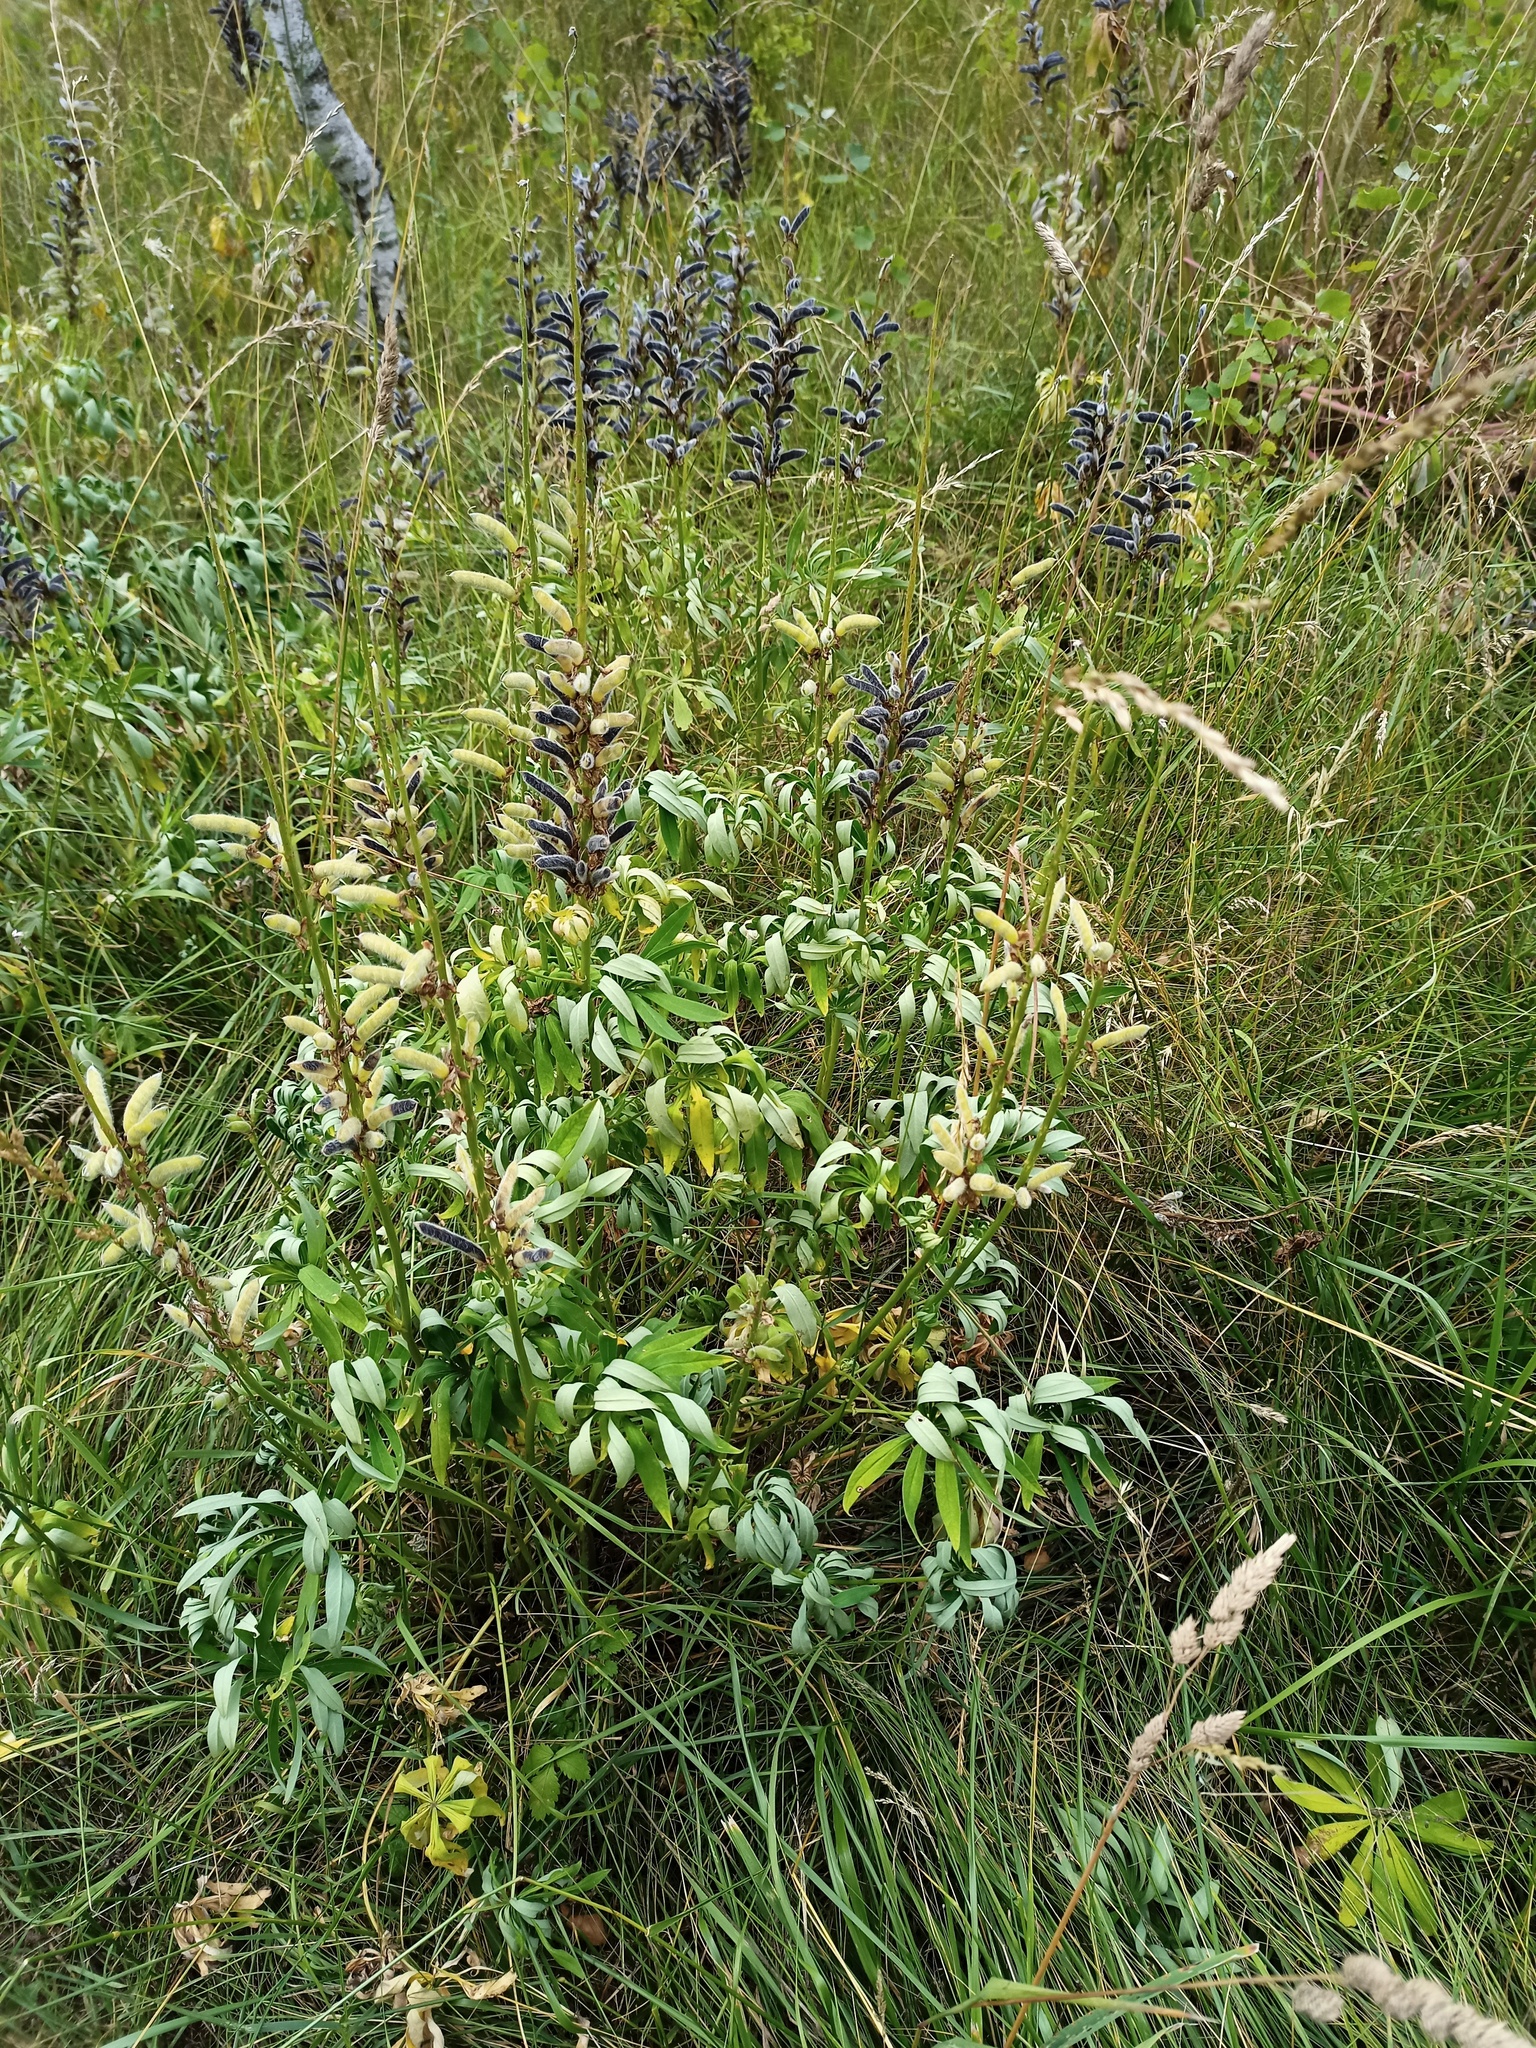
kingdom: Plantae
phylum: Tracheophyta
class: Magnoliopsida
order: Fabales
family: Fabaceae
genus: Lupinus
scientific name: Lupinus polyphyllus
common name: Garden lupin
